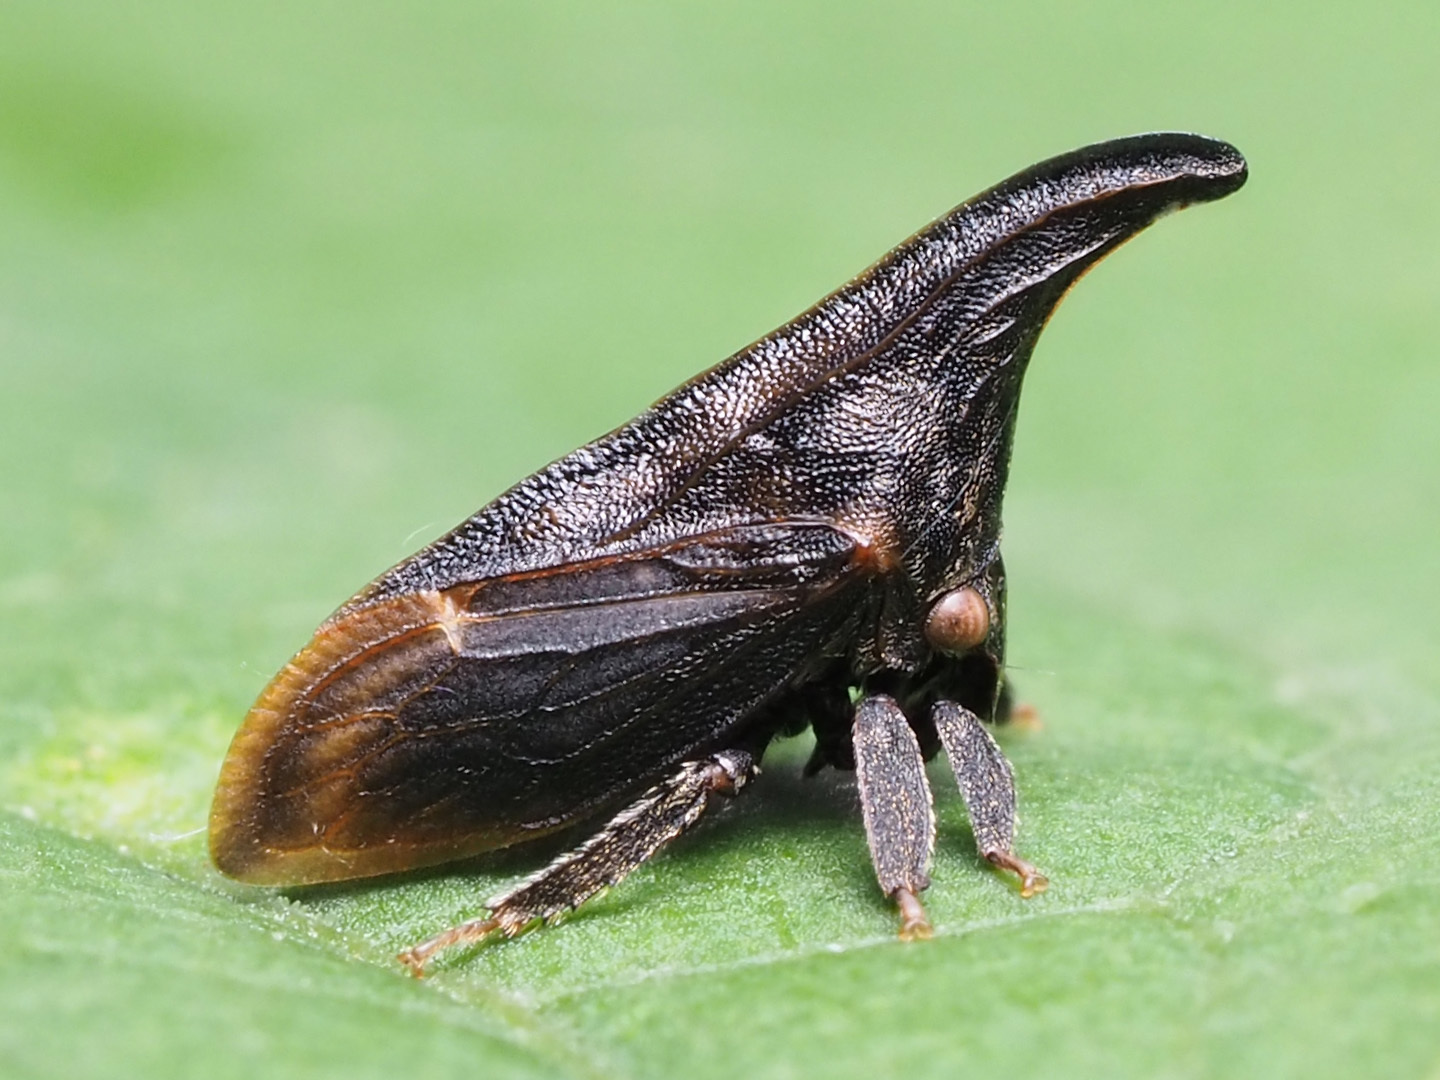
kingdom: Animalia
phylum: Arthropoda
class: Insecta
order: Hemiptera
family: Membracidae
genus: Enchenopa
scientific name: Enchenopa latipes
